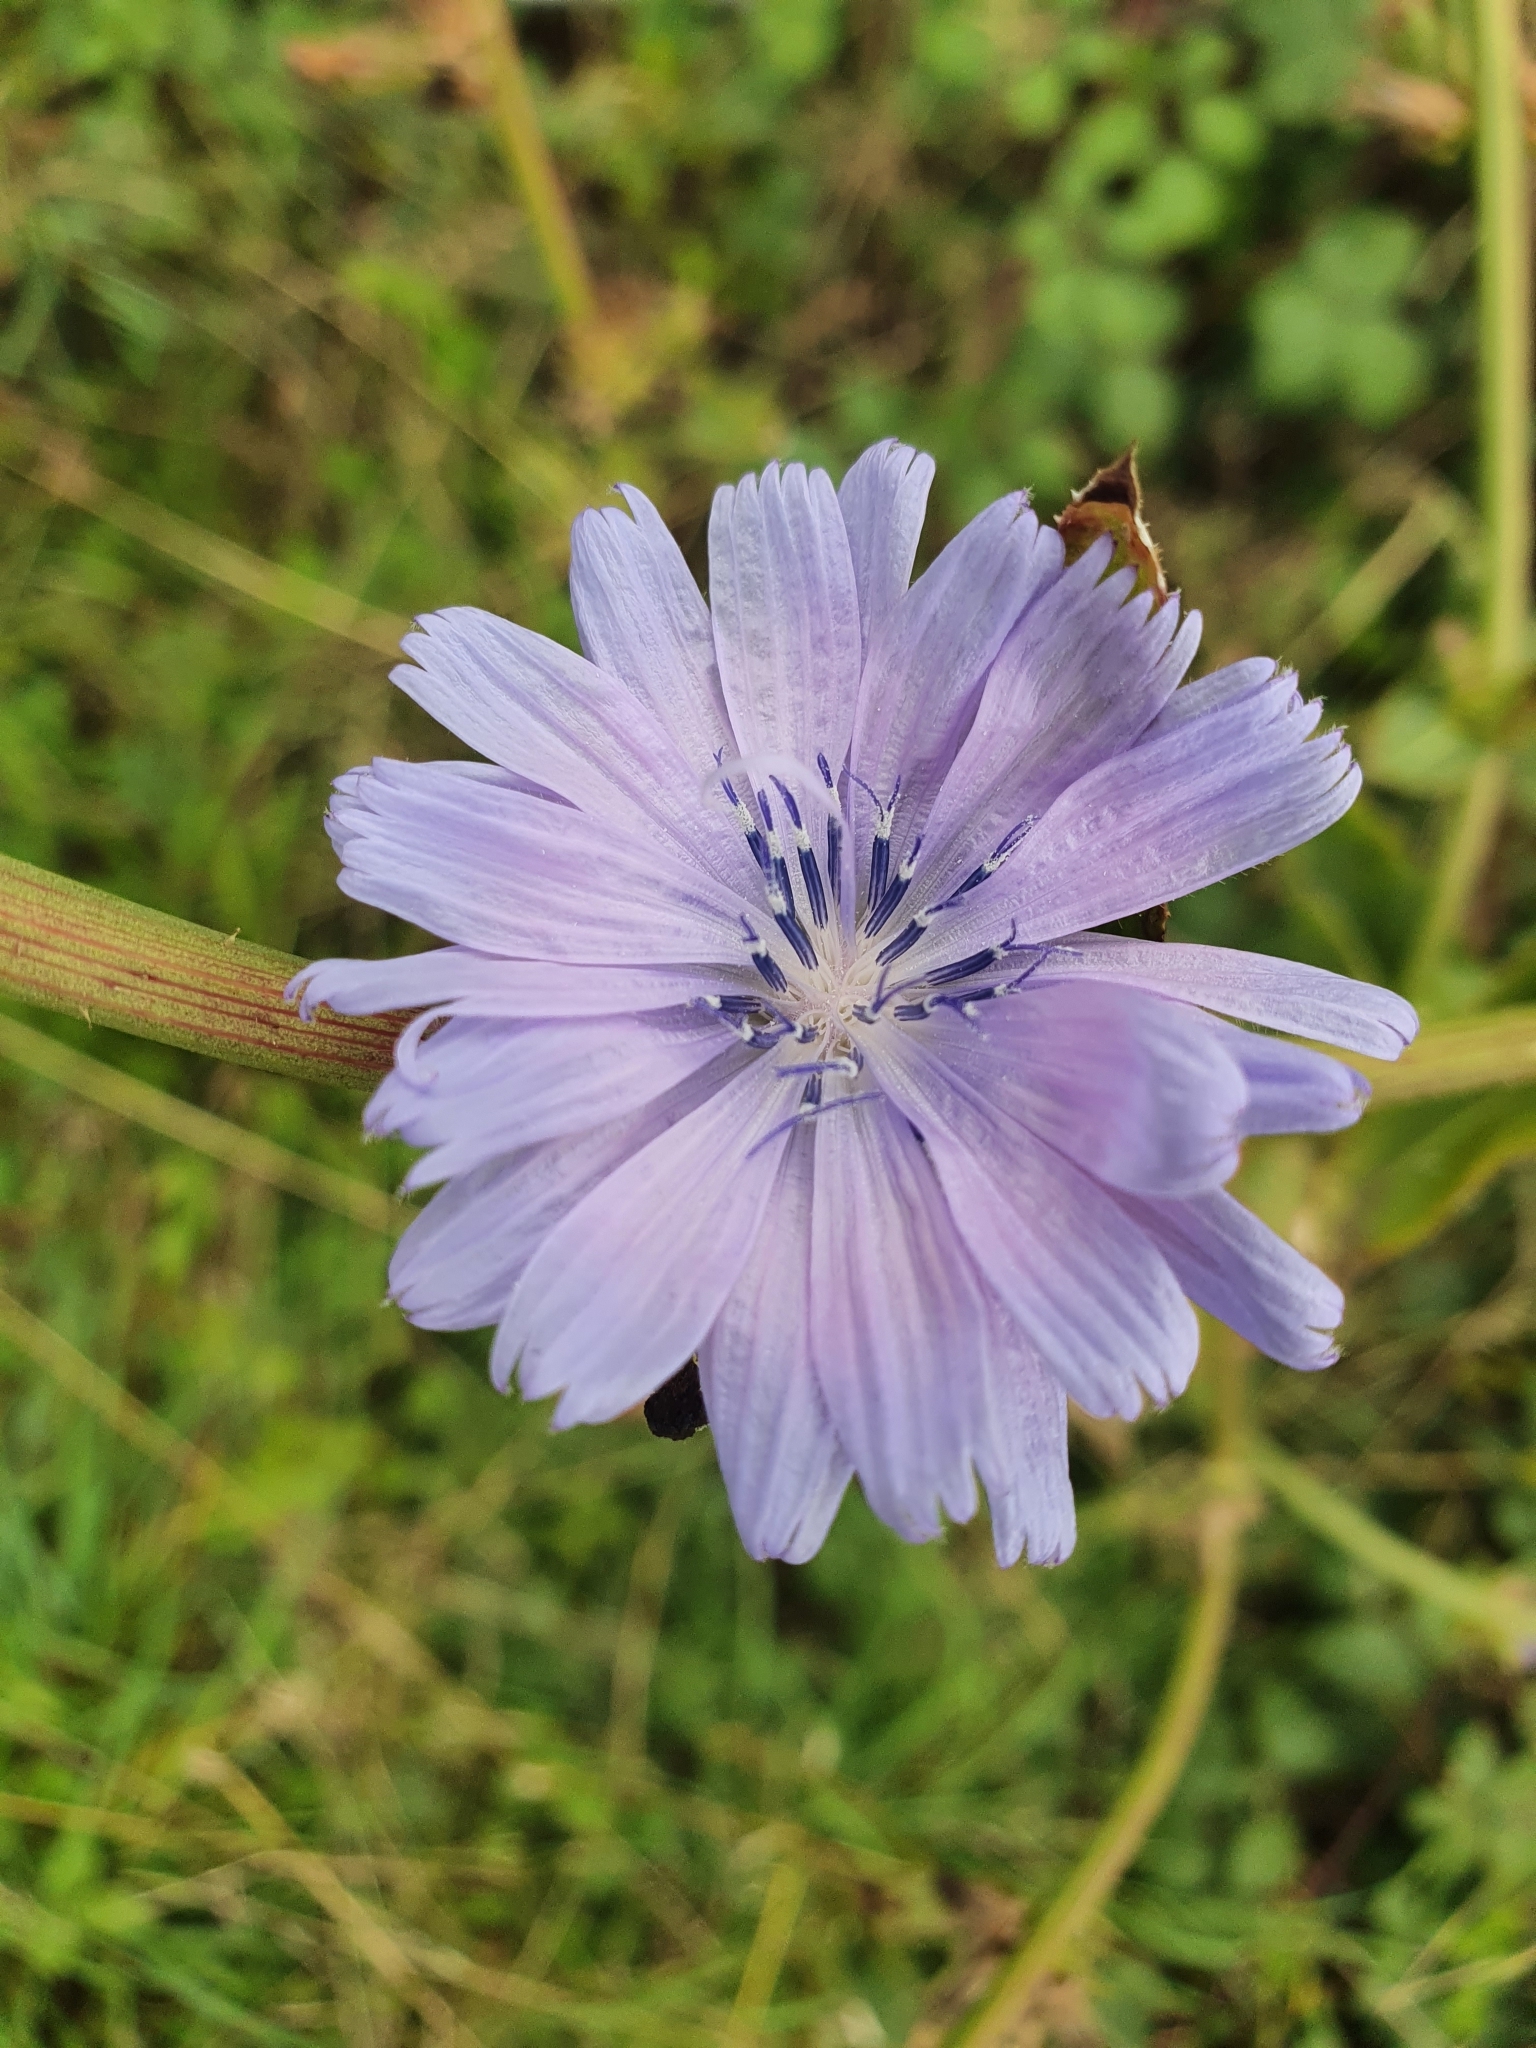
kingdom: Plantae
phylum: Tracheophyta
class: Magnoliopsida
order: Asterales
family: Asteraceae
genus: Cichorium
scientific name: Cichorium intybus
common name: Chicory
